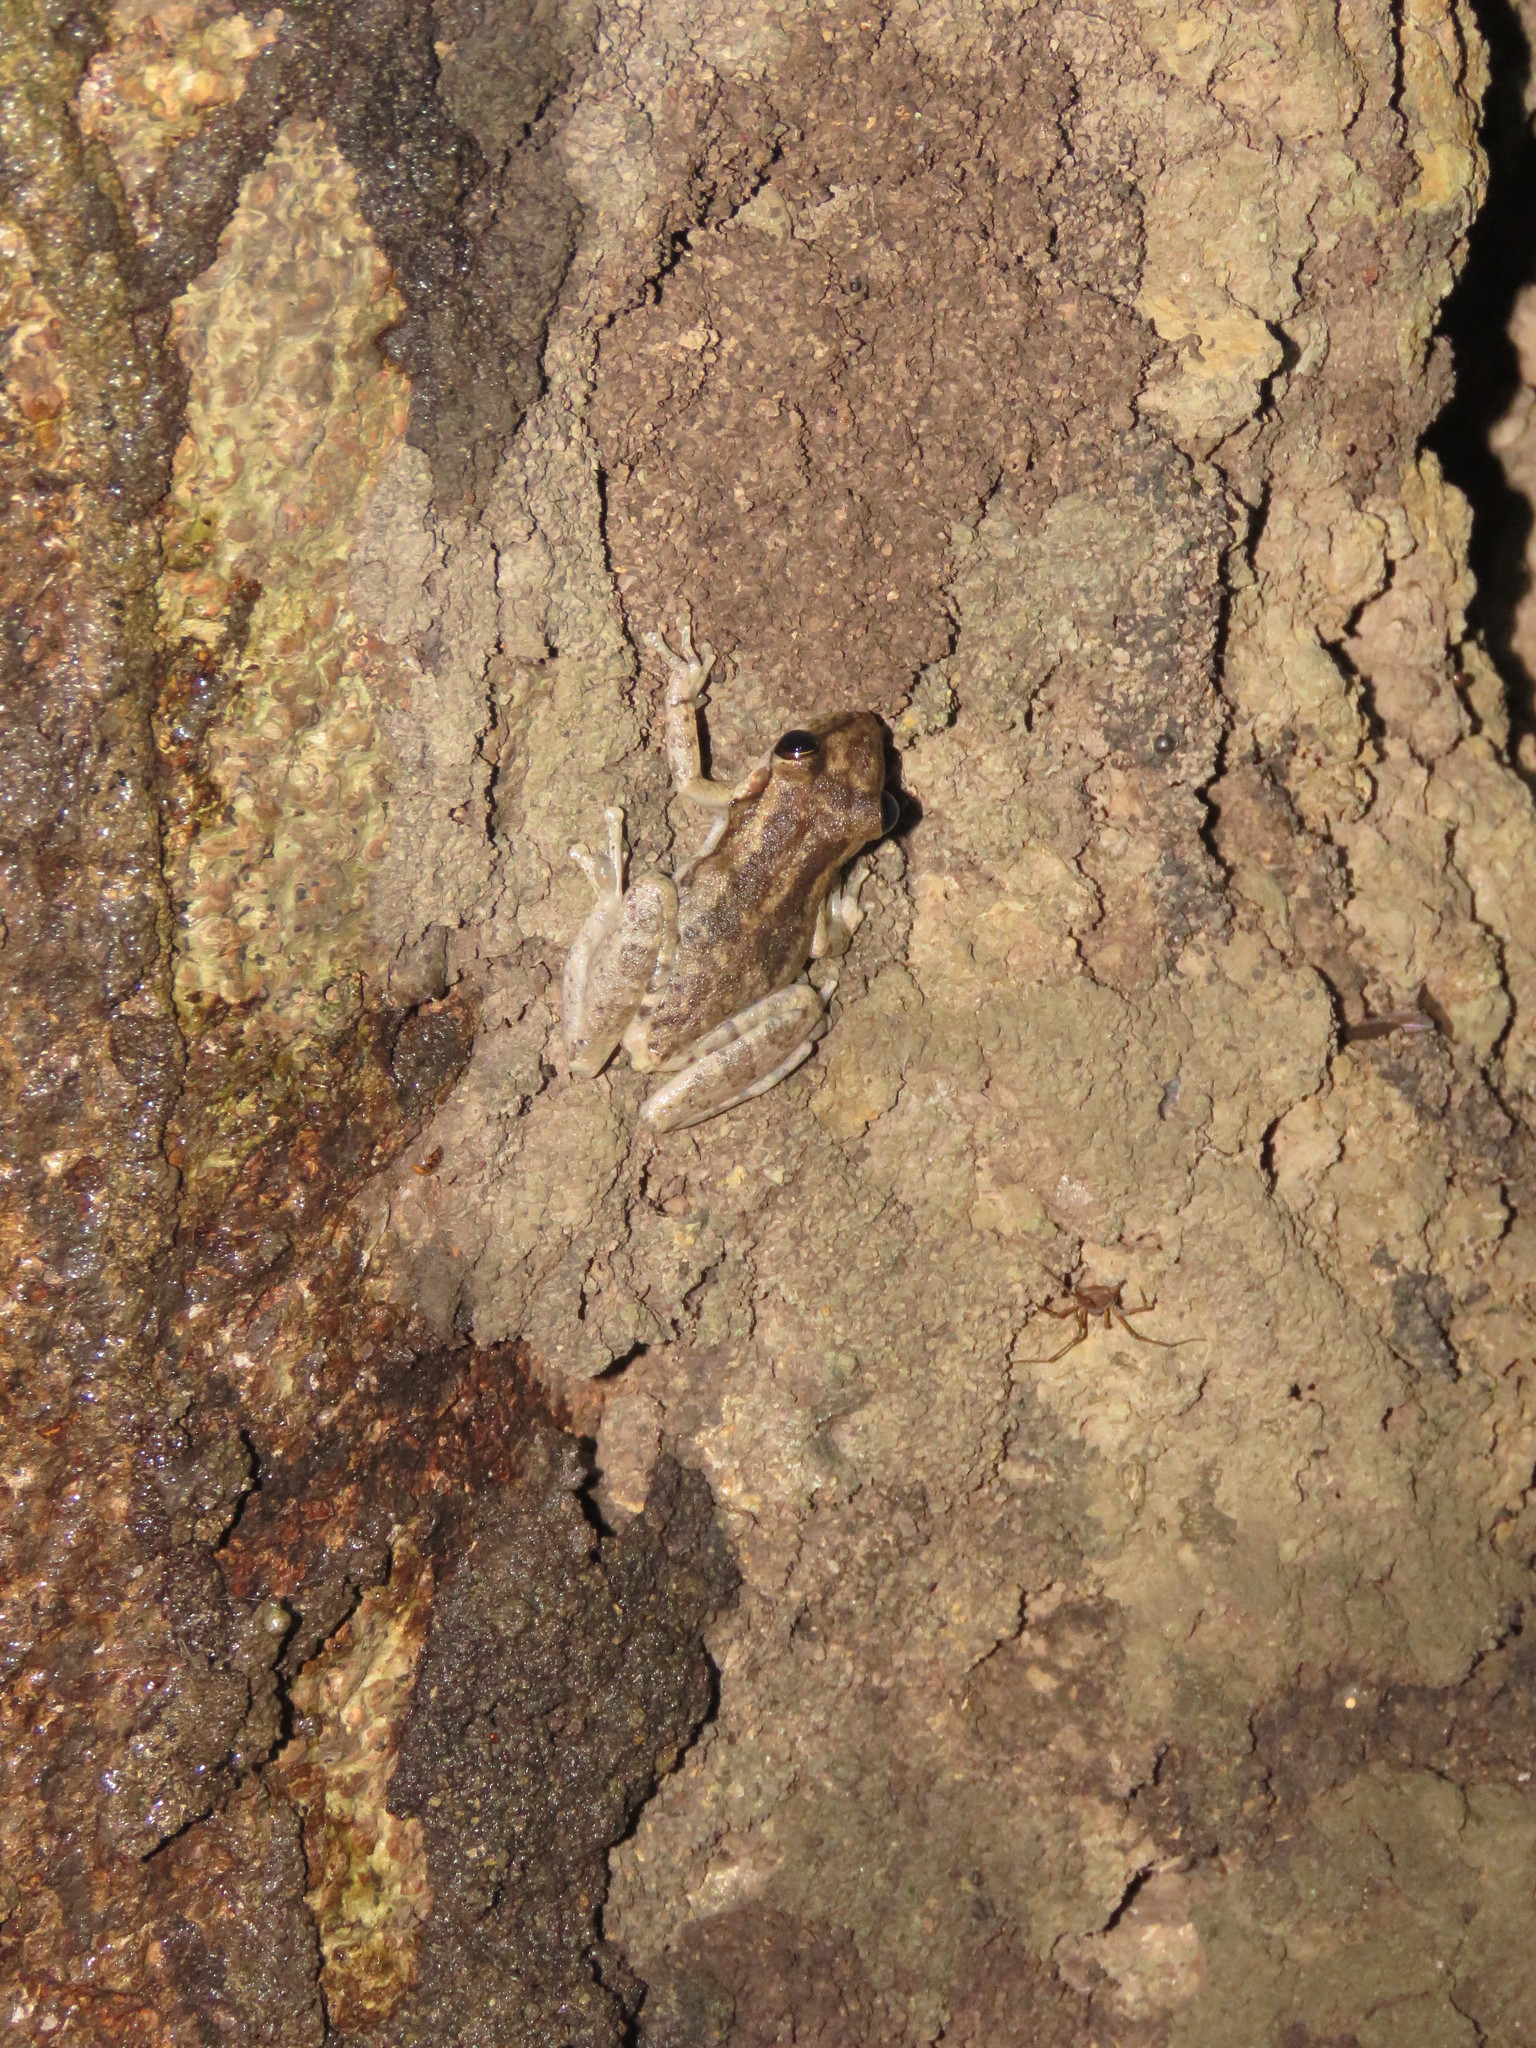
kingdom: Animalia
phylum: Chordata
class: Amphibia
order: Anura
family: Hylidae
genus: Scinax
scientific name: Scinax ruber
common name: Red snouted treefrog
